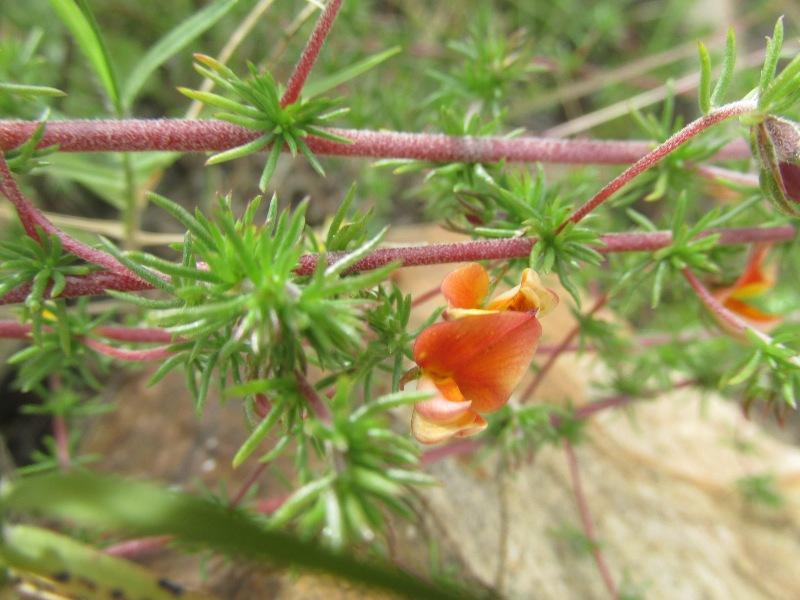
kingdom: Plantae
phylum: Tracheophyta
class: Magnoliopsida
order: Fabales
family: Fabaceae
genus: Aspalathus
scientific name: Aspalathus retroflexa
